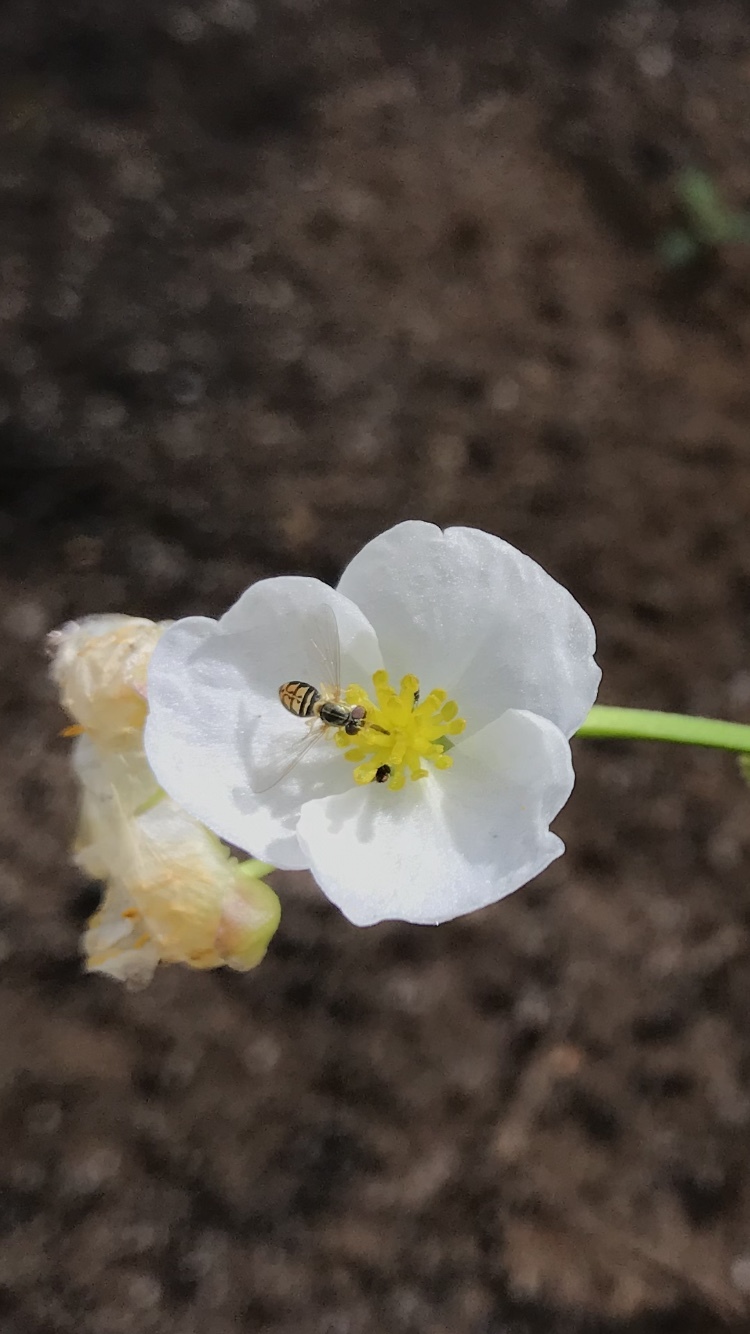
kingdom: Animalia
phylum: Arthropoda
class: Insecta
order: Diptera
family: Syrphidae
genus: Toxomerus
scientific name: Toxomerus marginatus
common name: Syrphid fly
